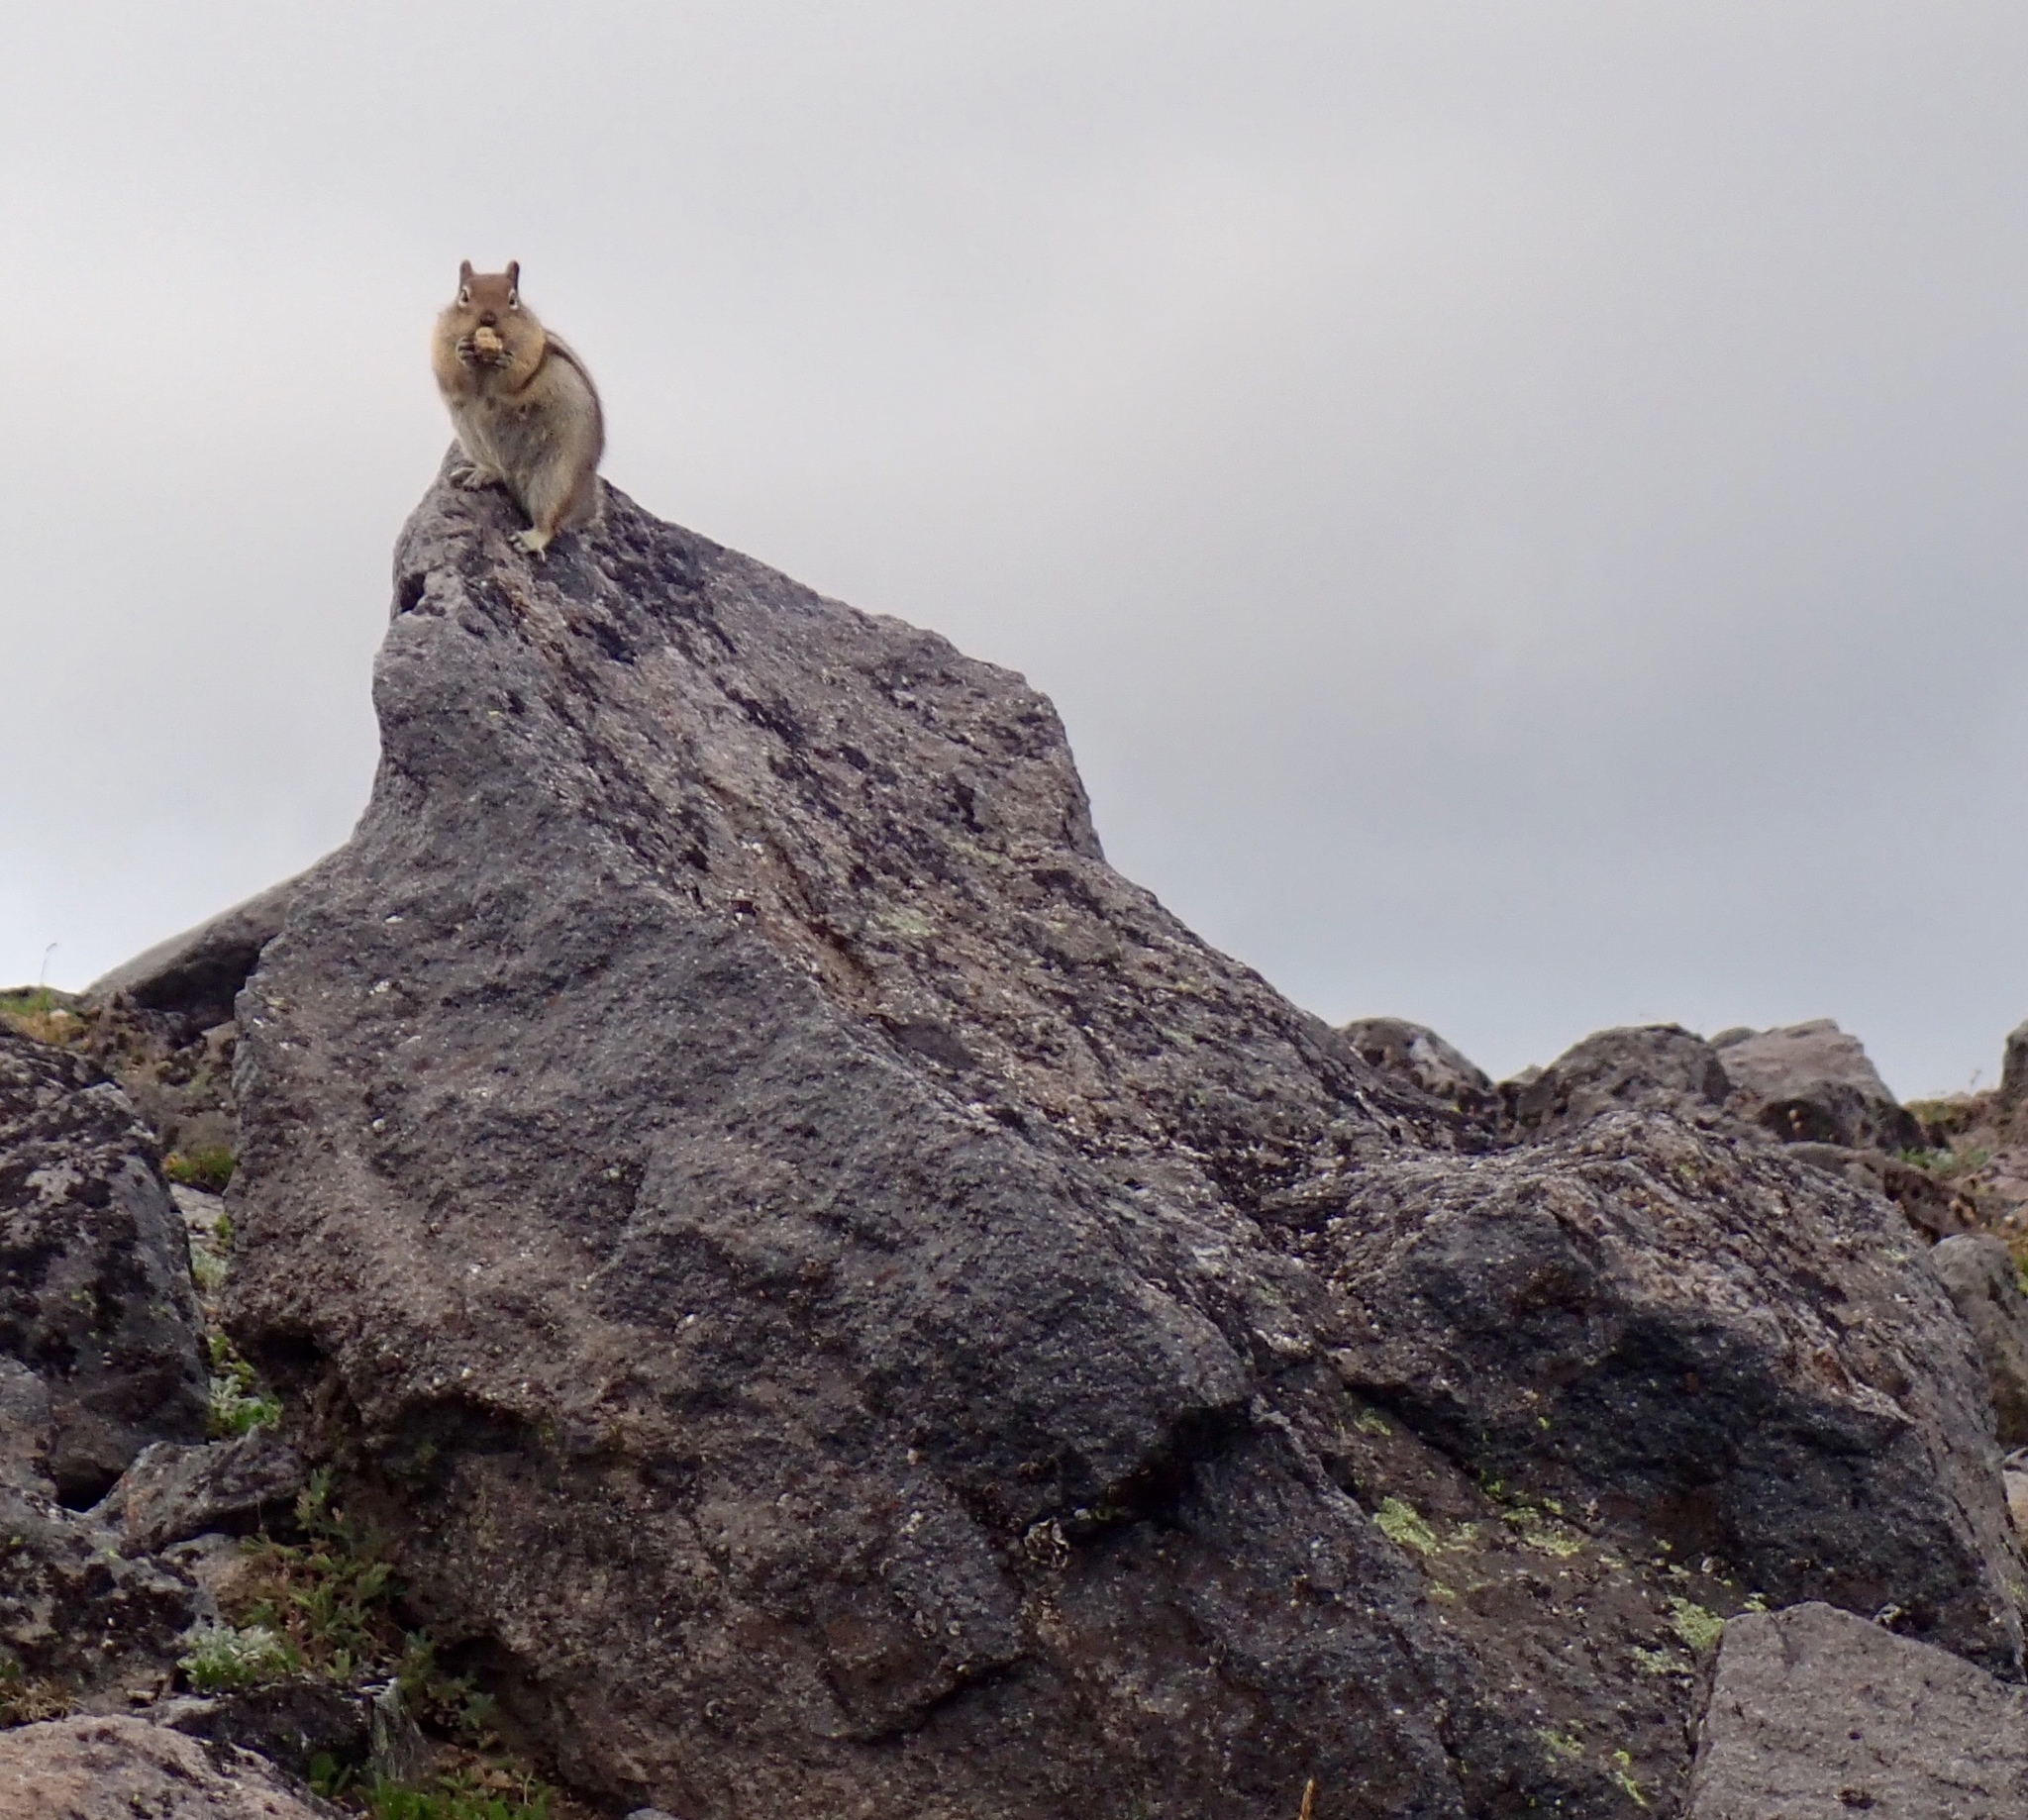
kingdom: Animalia
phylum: Chordata
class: Mammalia
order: Rodentia
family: Sciuridae
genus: Callospermophilus
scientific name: Callospermophilus saturatus
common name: Cascade golden-mantled ground squirrel
